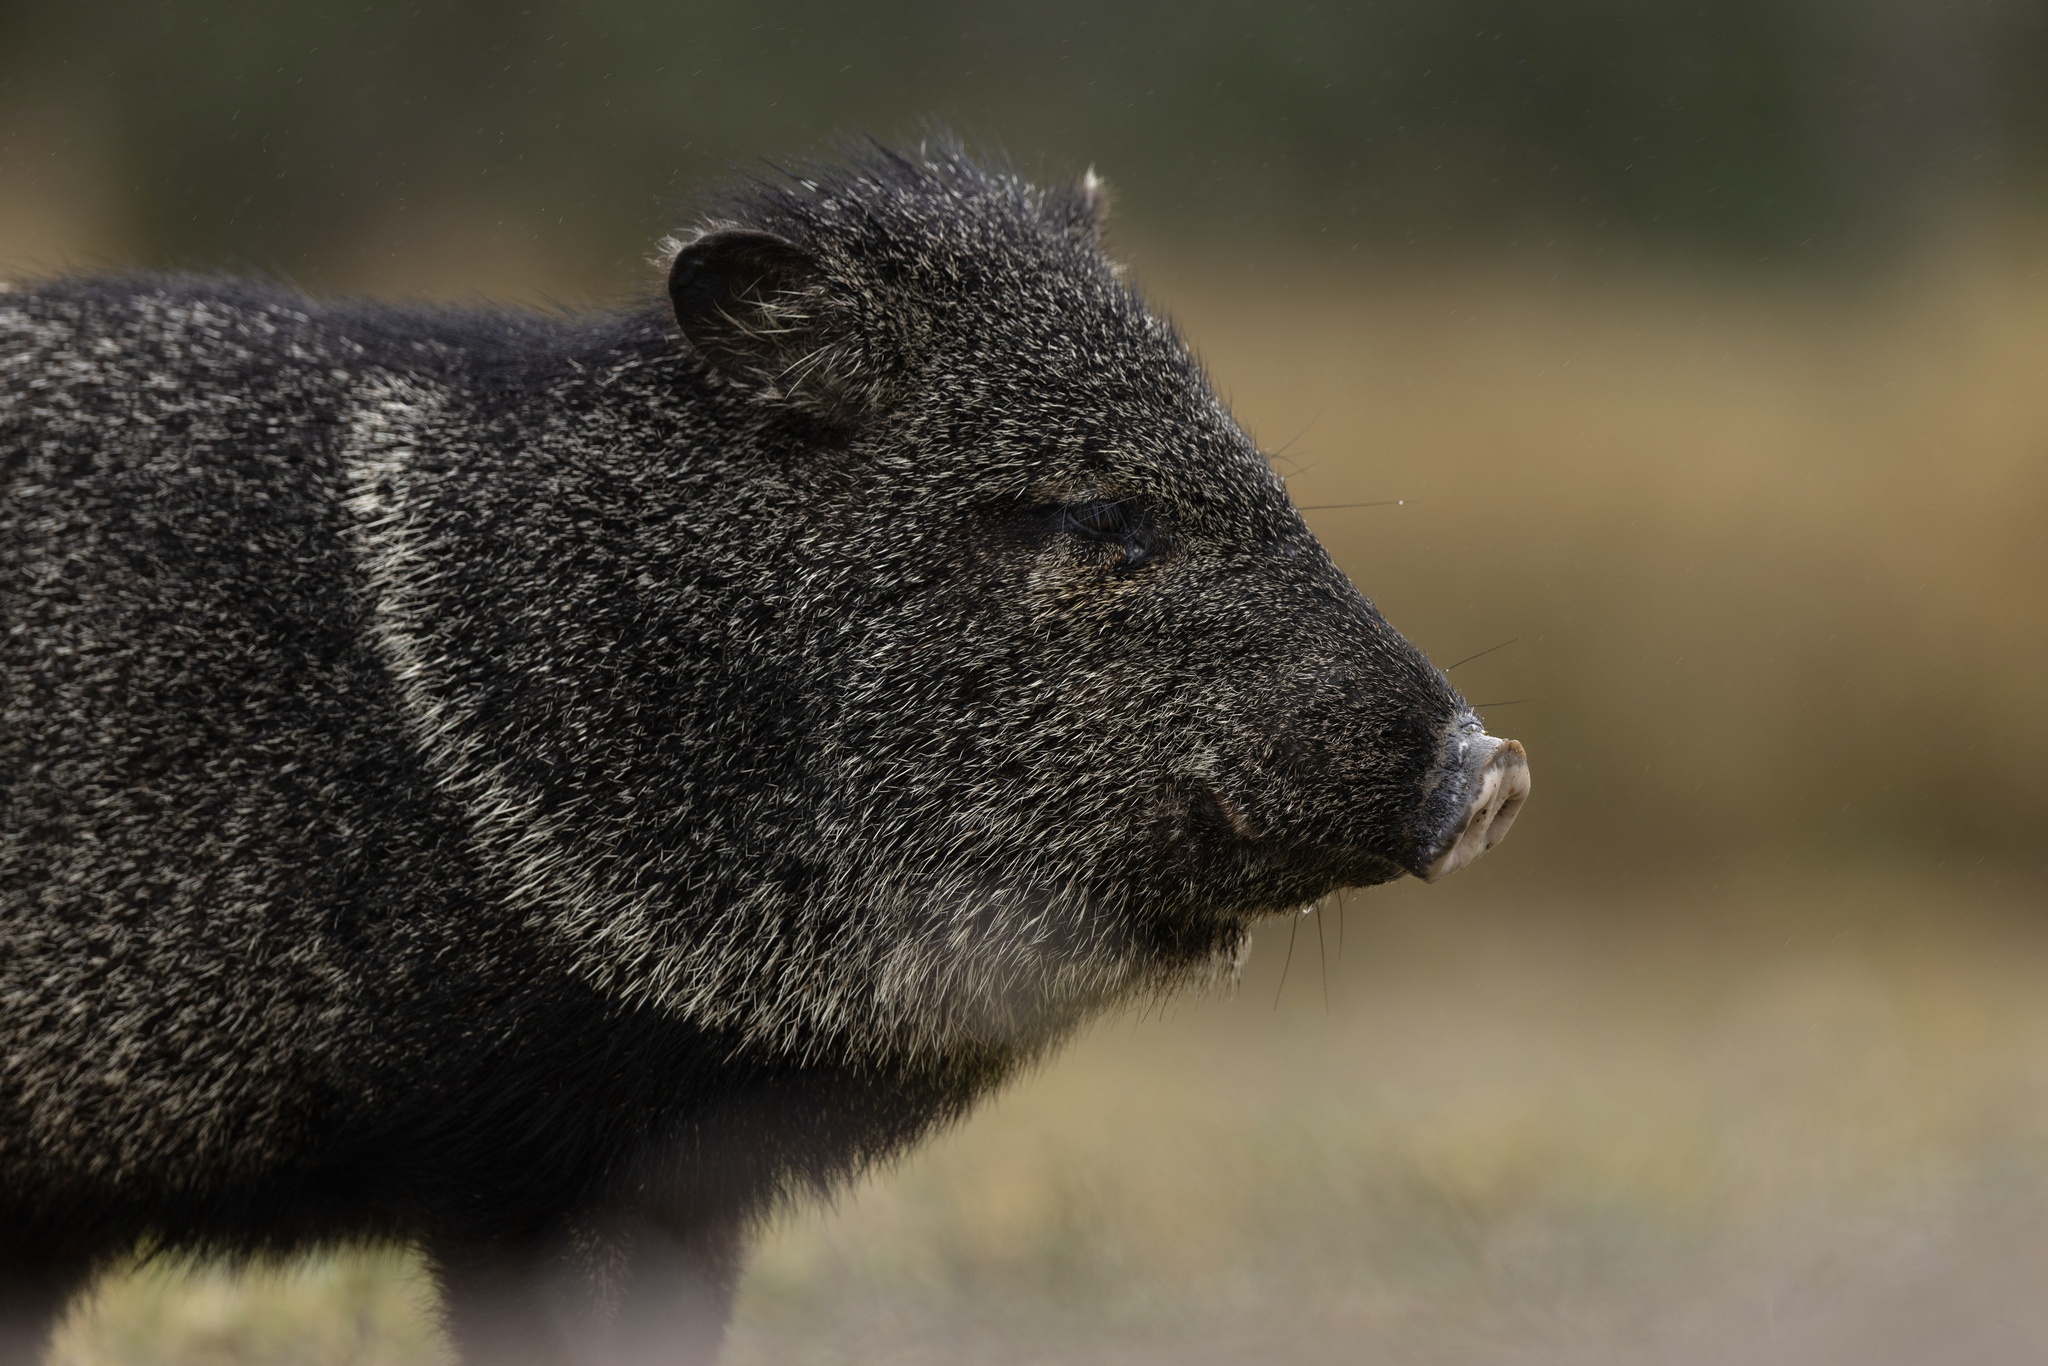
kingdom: Animalia
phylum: Chordata
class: Mammalia
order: Artiodactyla
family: Tayassuidae
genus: Pecari
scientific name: Pecari tajacu
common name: Collared peccary
